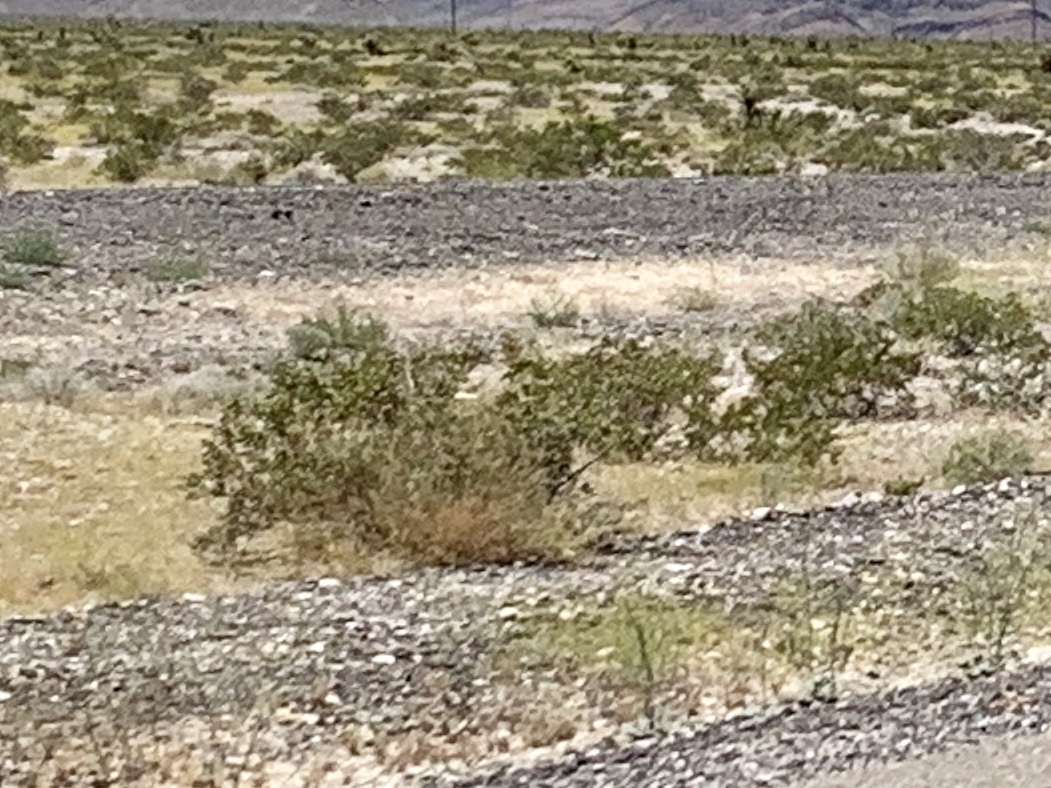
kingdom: Plantae
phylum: Tracheophyta
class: Magnoliopsida
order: Zygophyllales
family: Zygophyllaceae
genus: Larrea
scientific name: Larrea tridentata
